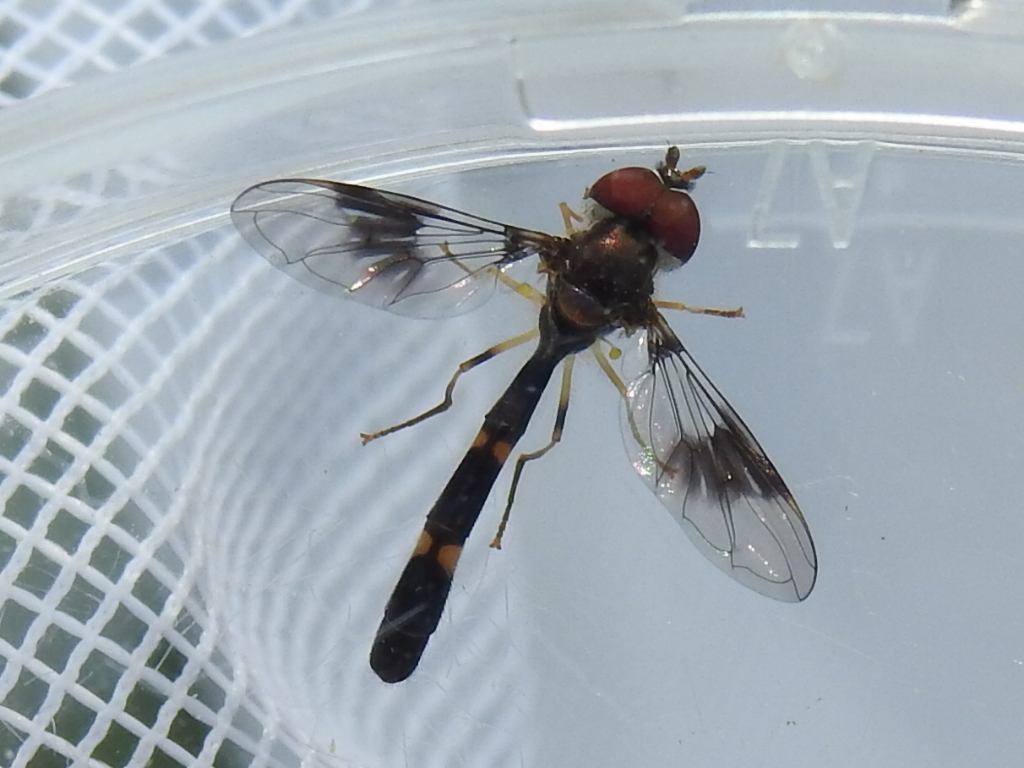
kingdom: Animalia
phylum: Arthropoda
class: Insecta
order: Diptera
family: Syrphidae
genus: Hypocritanus
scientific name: Hypocritanus fascipennis
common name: Eastern band-winged hover fly
